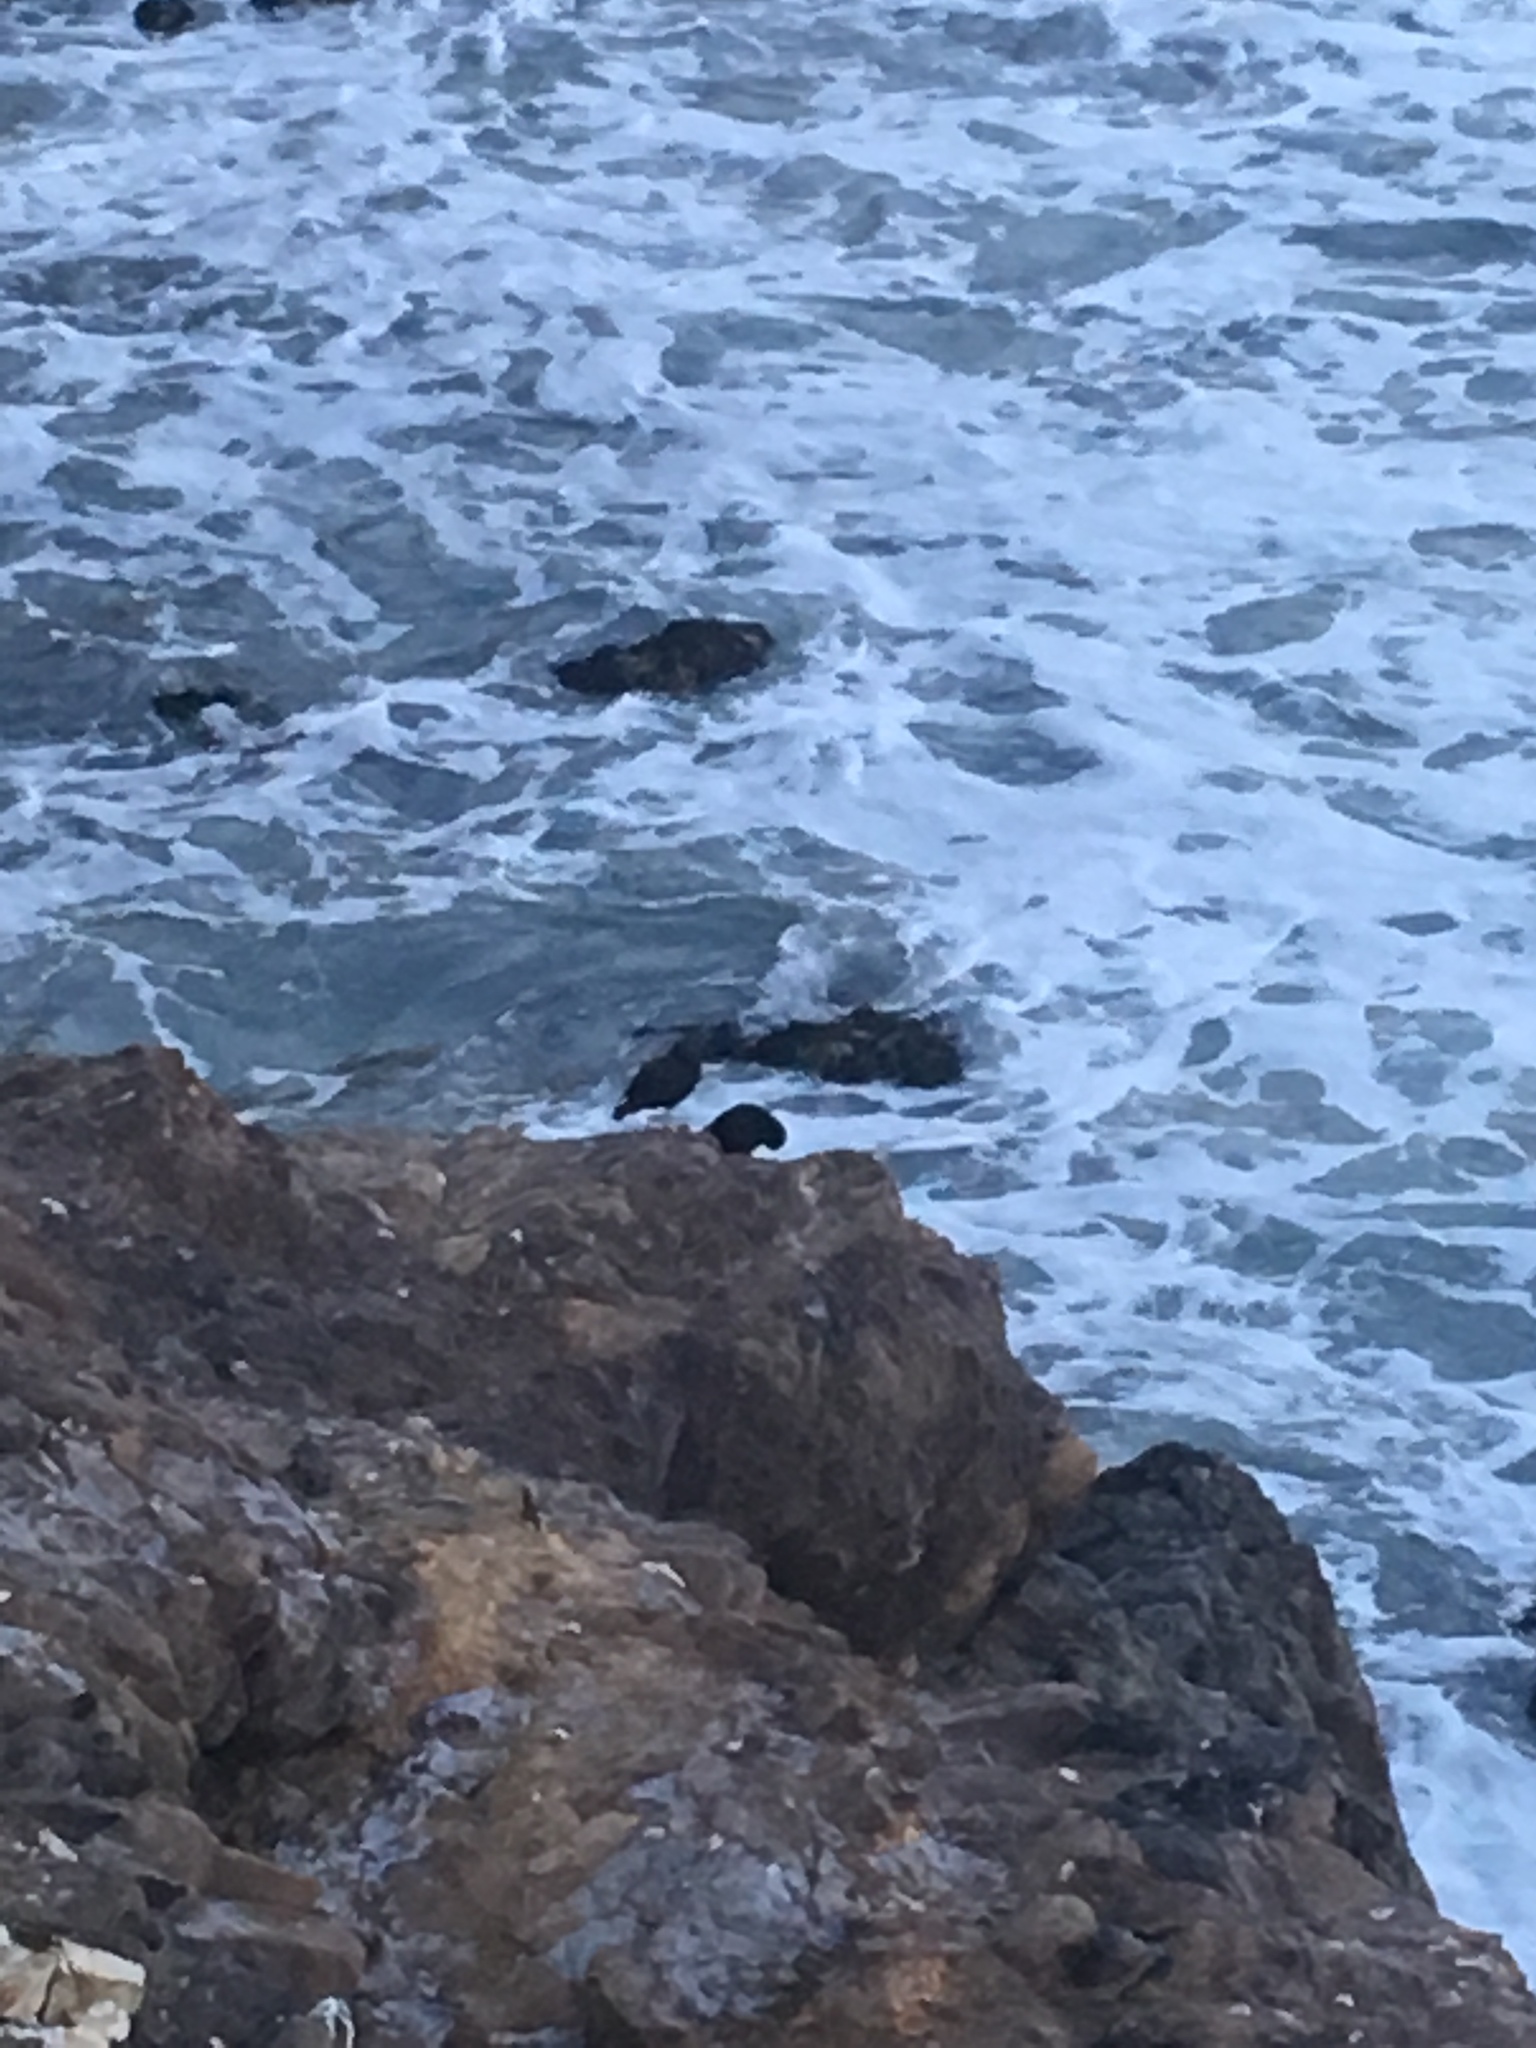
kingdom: Animalia
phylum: Chordata
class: Aves
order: Charadriiformes
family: Haematopodidae
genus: Haematopus
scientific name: Haematopus bachmani
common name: Black oystercatcher
